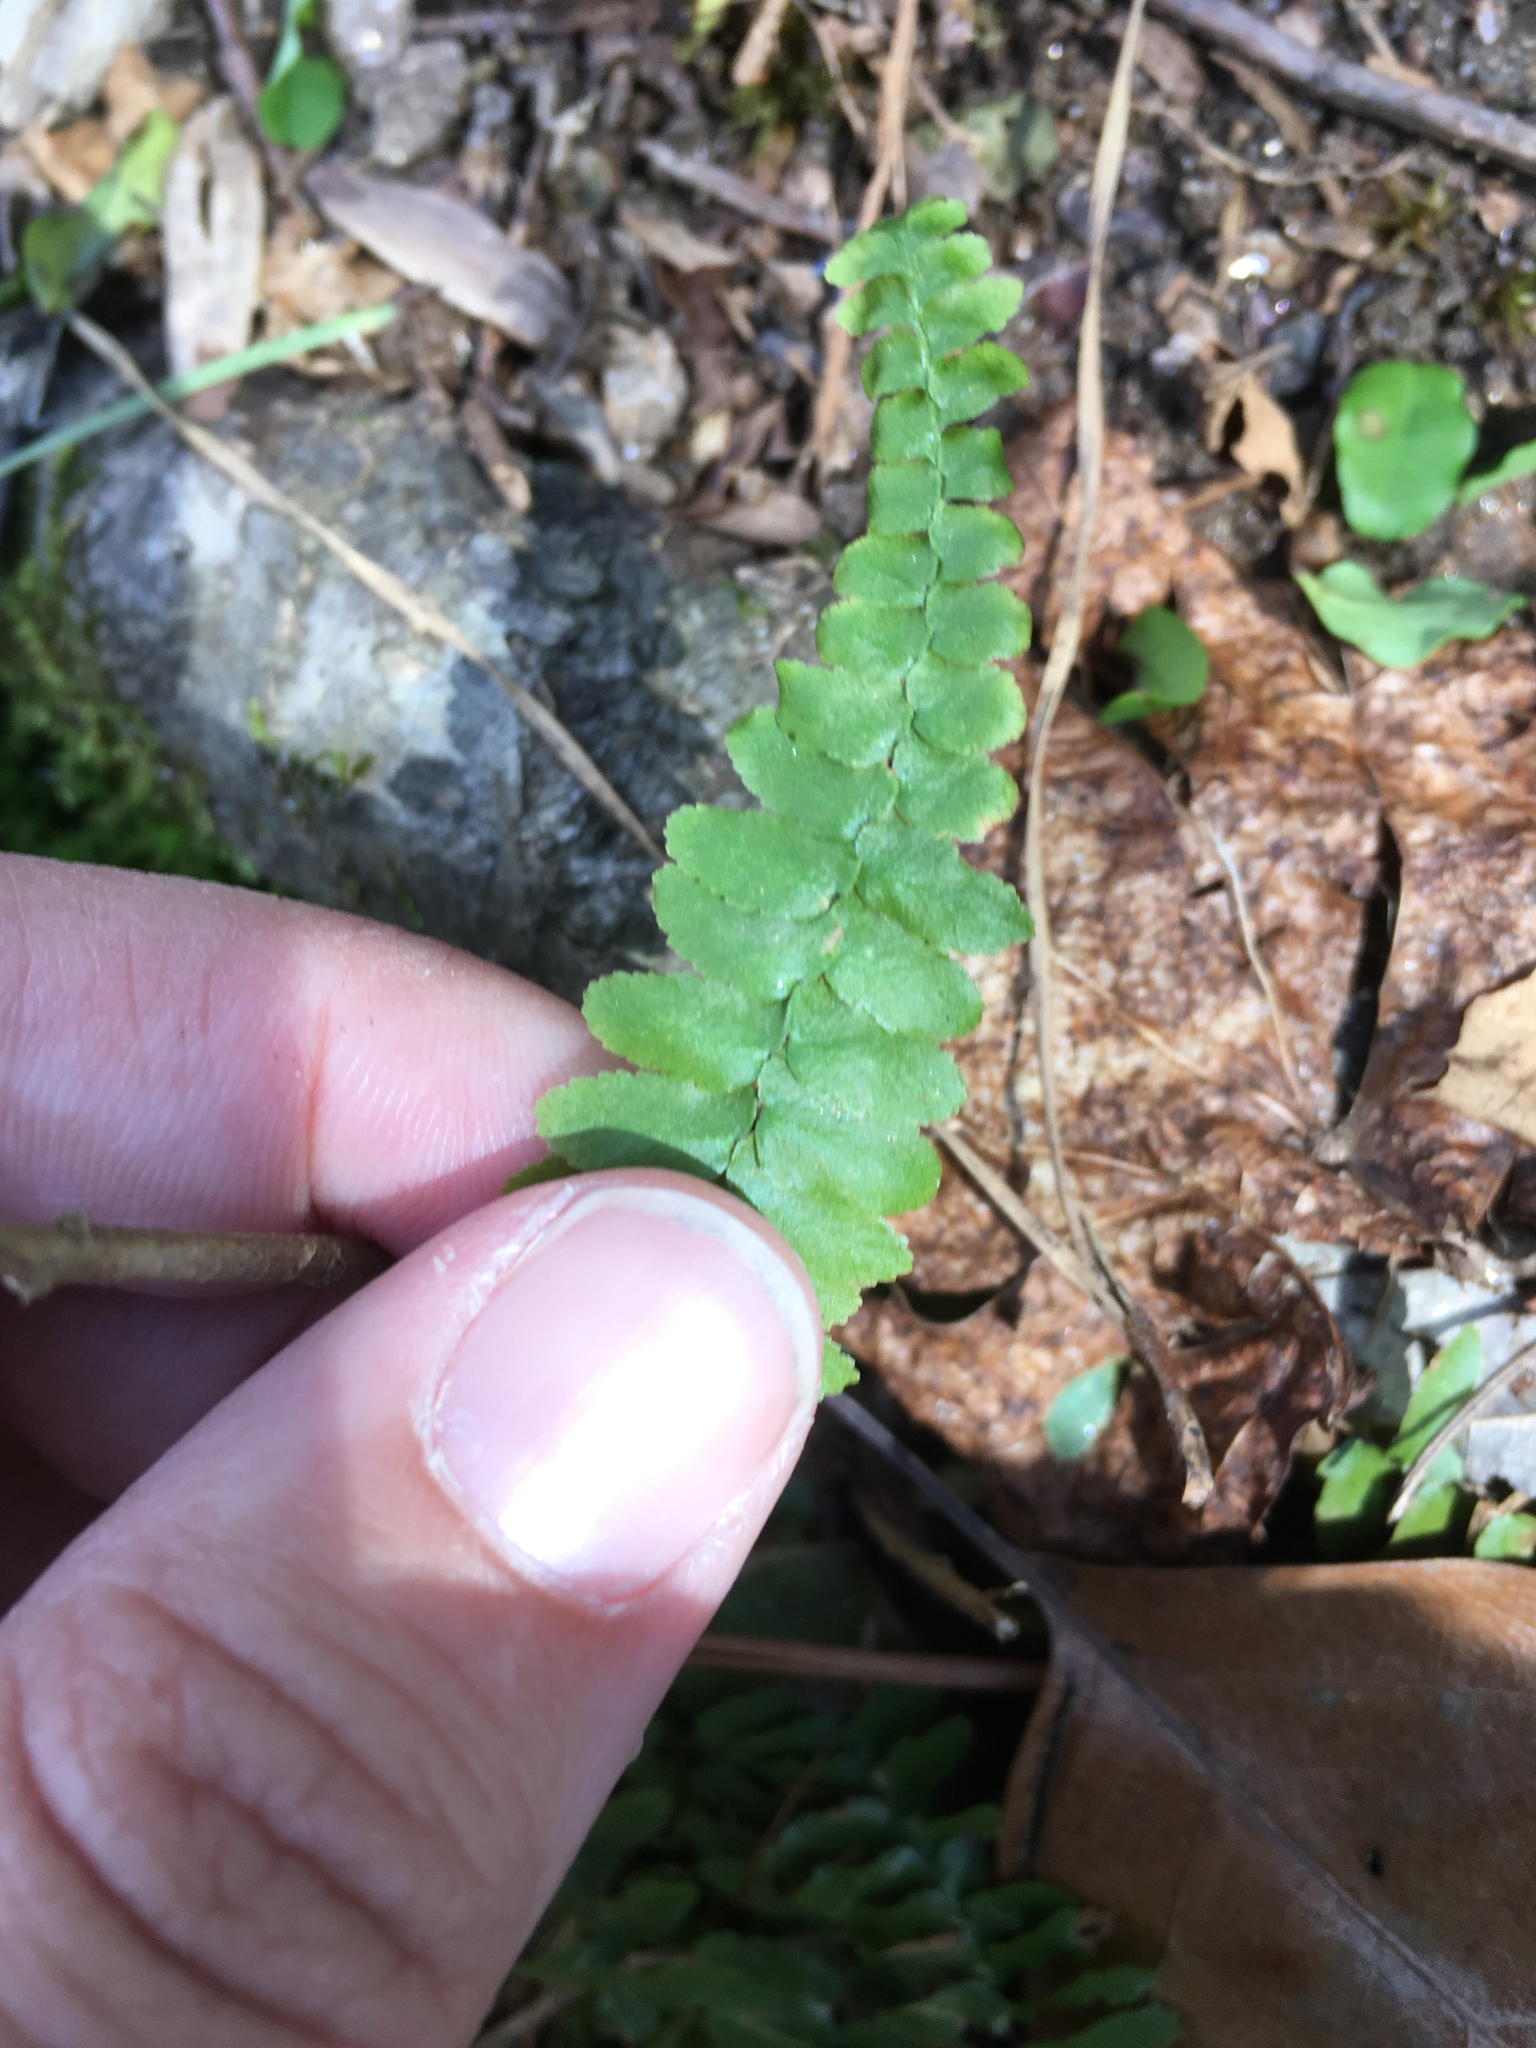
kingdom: Plantae
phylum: Tracheophyta
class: Polypodiopsida
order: Polypodiales
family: Aspleniaceae
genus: Asplenium
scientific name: Asplenium platyneuron
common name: Ebony spleenwort
